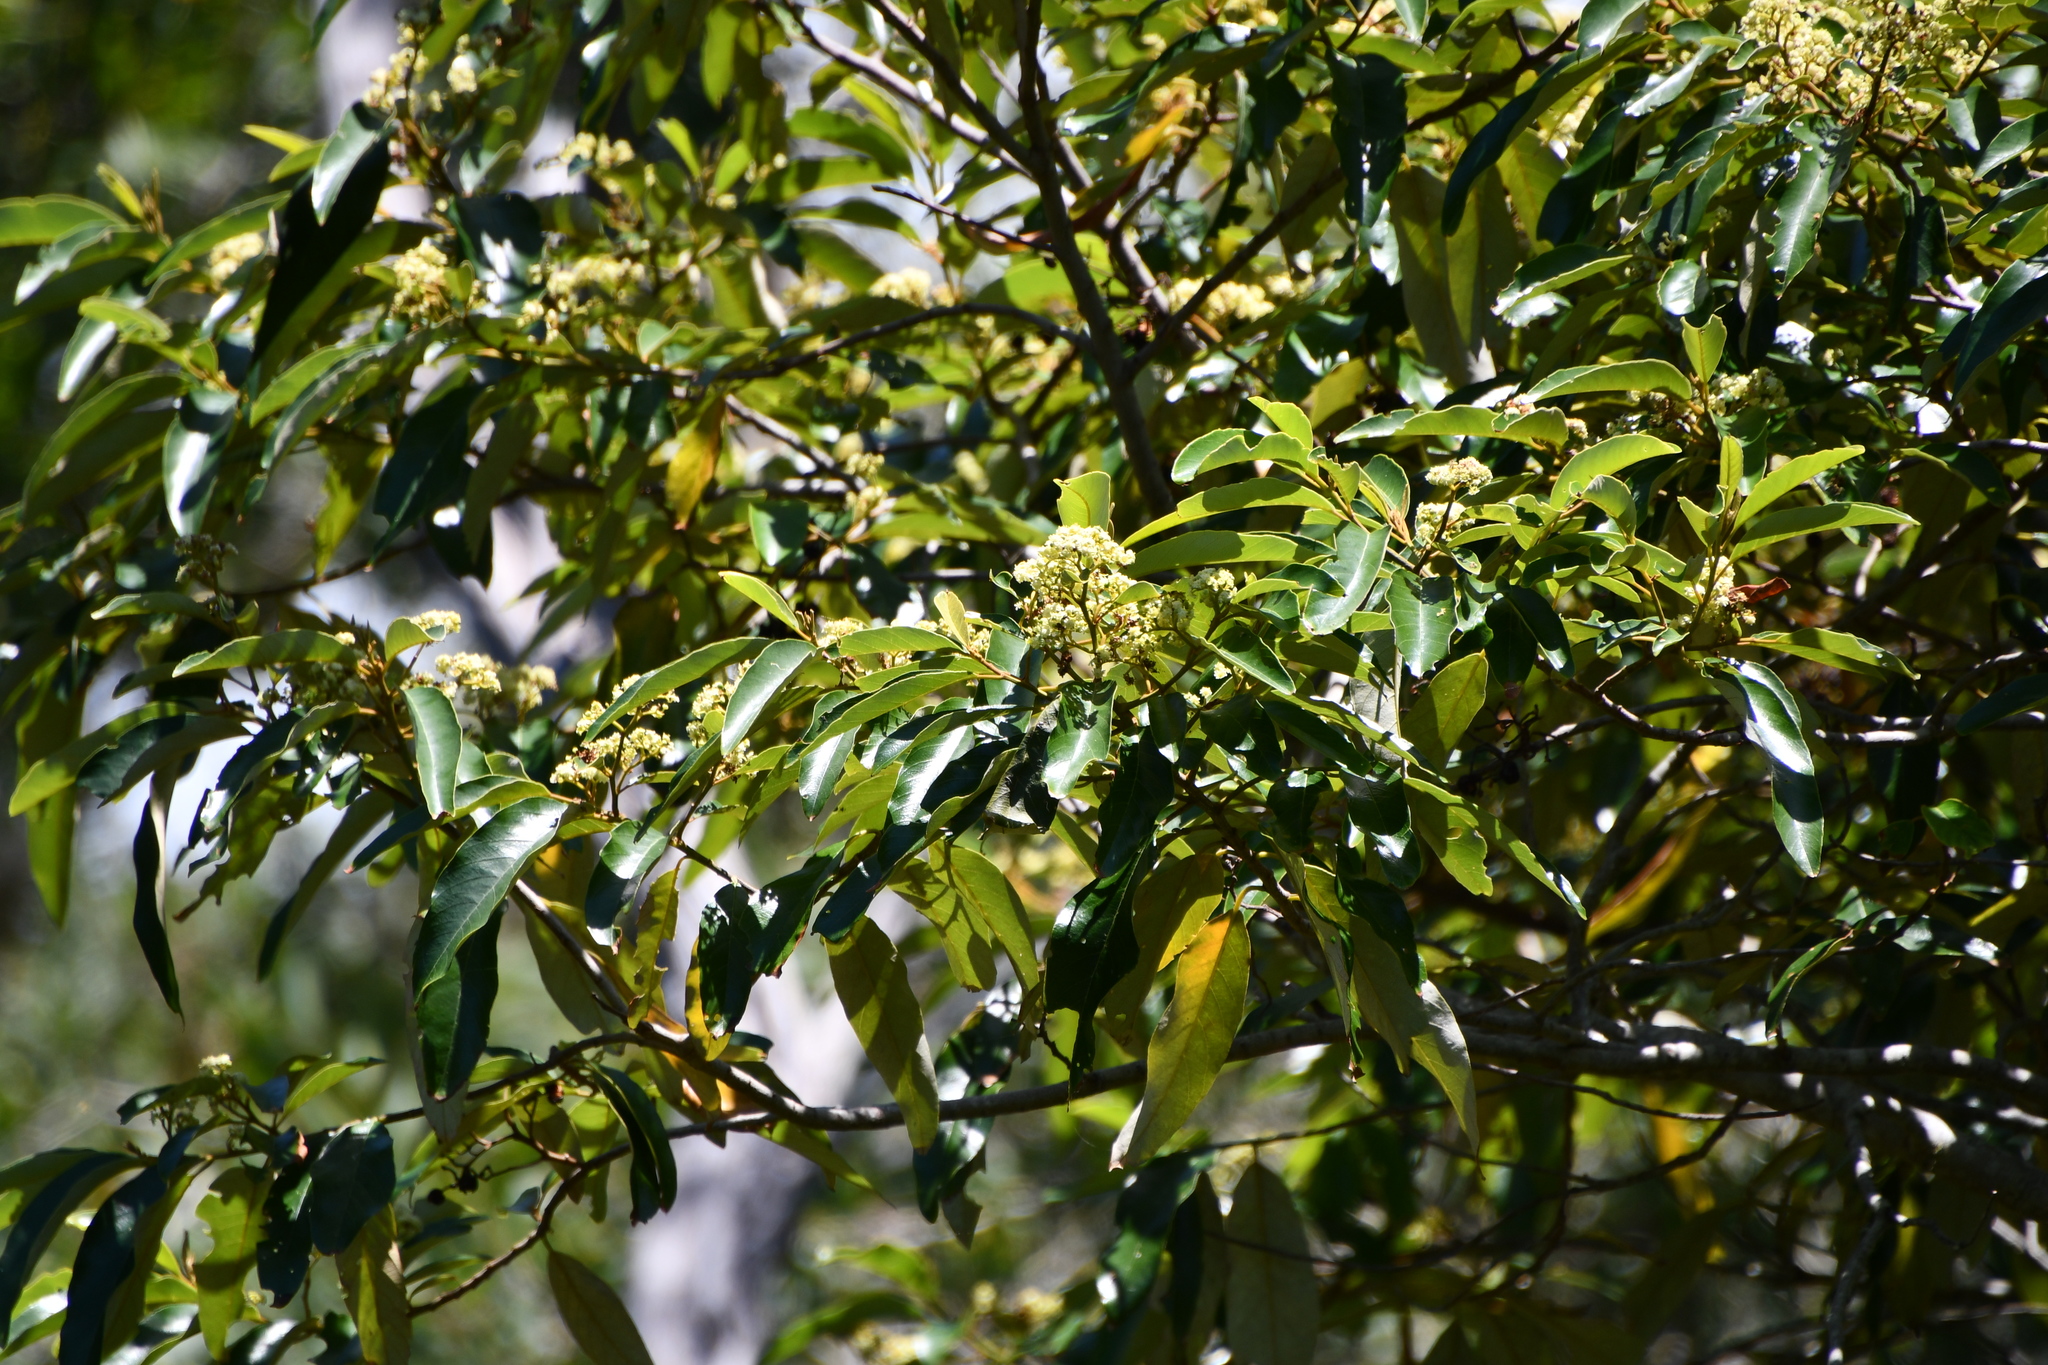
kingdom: Plantae
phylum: Tracheophyta
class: Magnoliopsida
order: Rosales
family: Rhamnaceae
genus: Alphitonia
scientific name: Alphitonia excelsa
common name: Red ash
